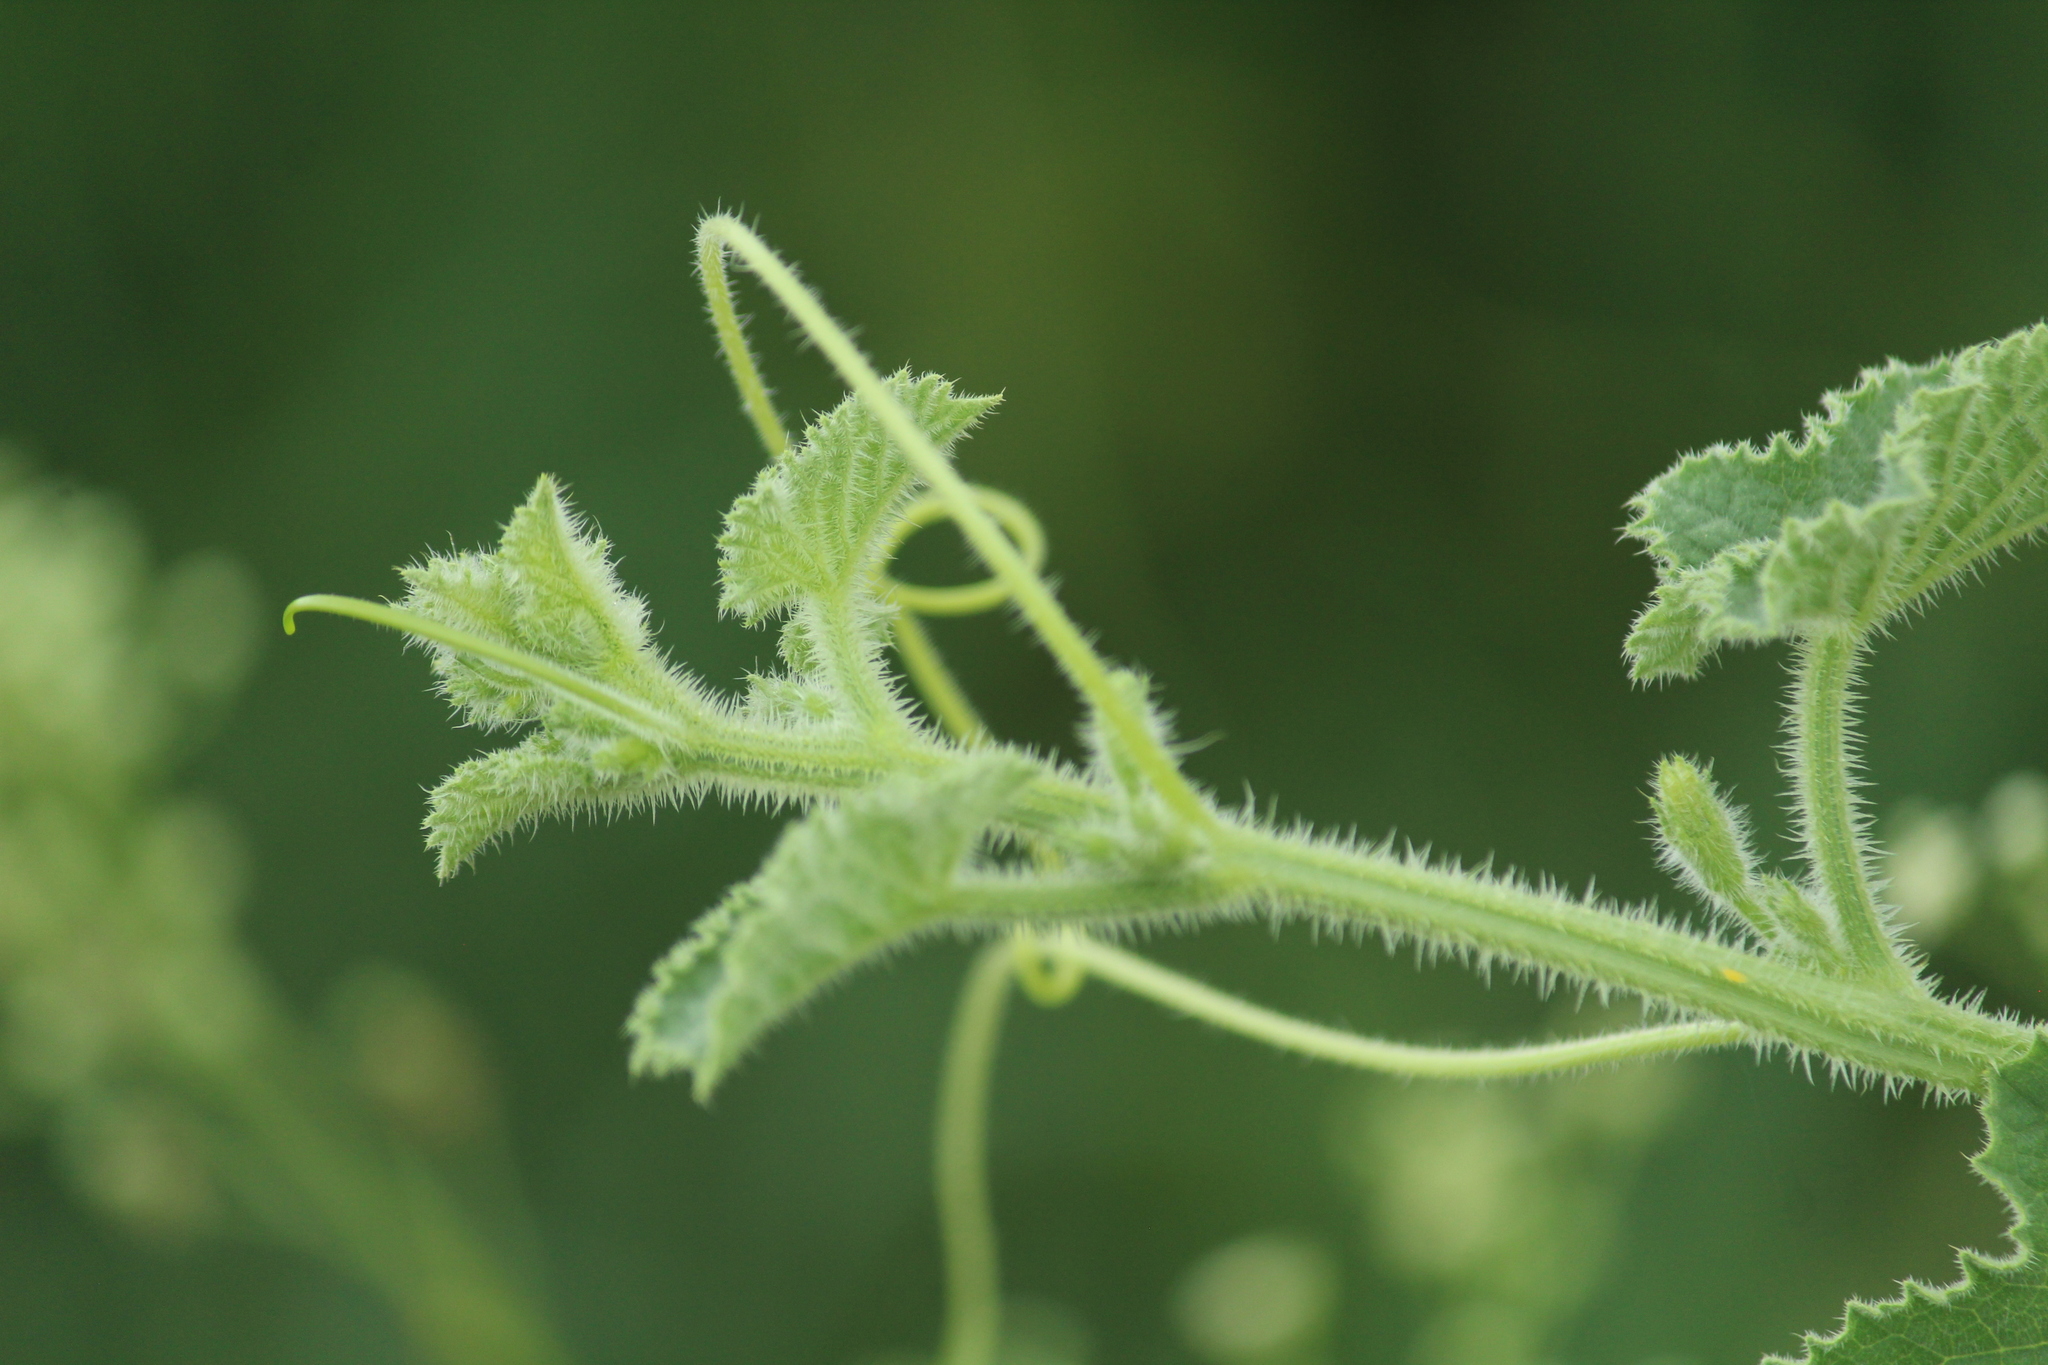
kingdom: Plantae
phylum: Tracheophyta
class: Magnoliopsida
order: Cucurbitales
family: Cucurbitaceae
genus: Cucumis
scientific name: Cucumis dipsaceus
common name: Hedgehog gourd
